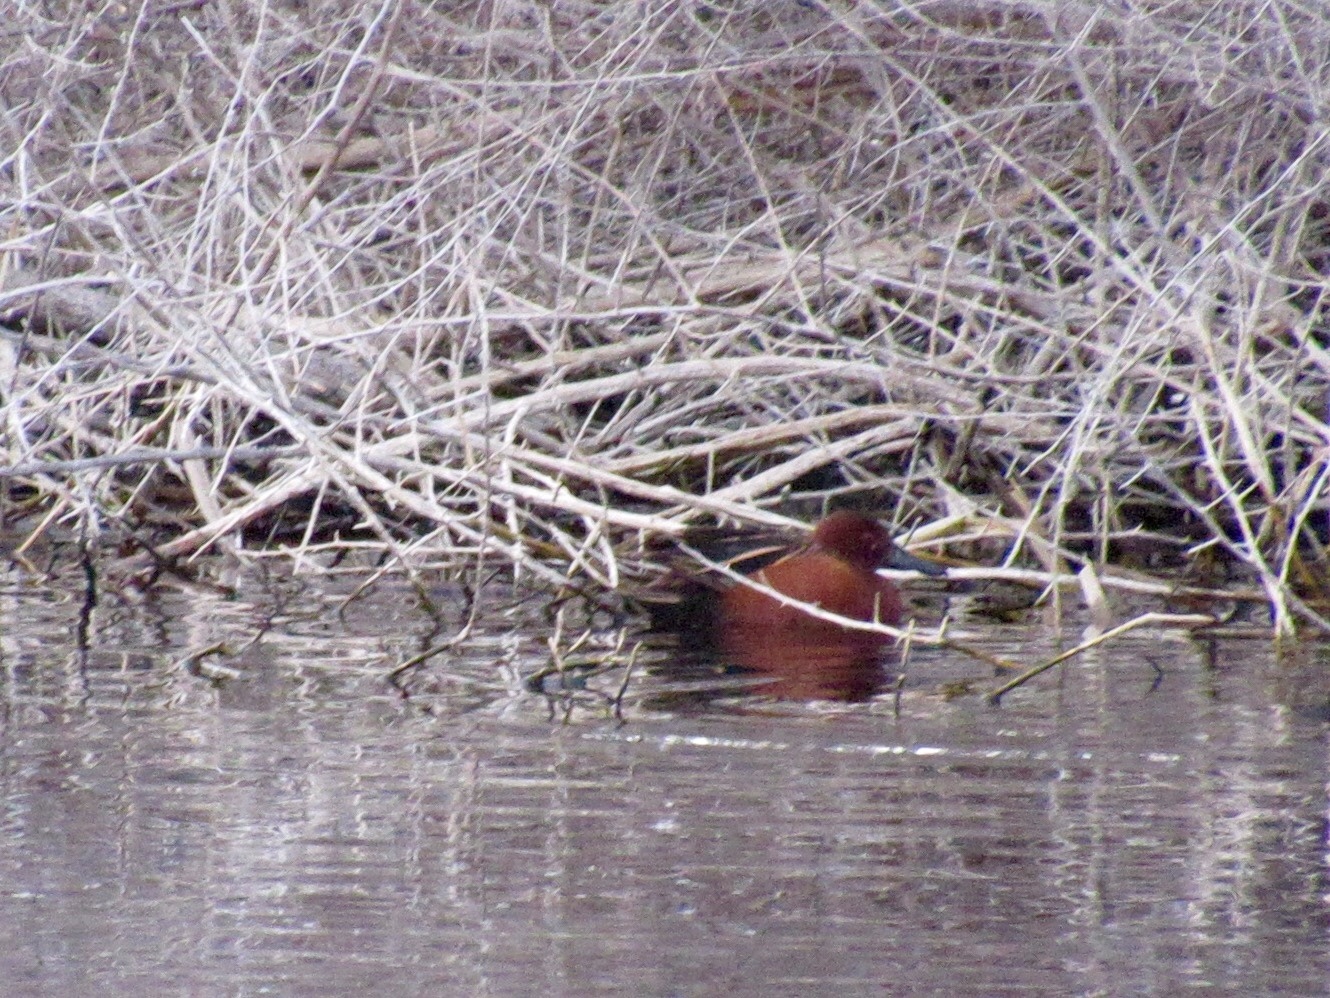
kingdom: Animalia
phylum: Chordata
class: Aves
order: Anseriformes
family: Anatidae
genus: Spatula
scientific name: Spatula cyanoptera
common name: Cinnamon teal
